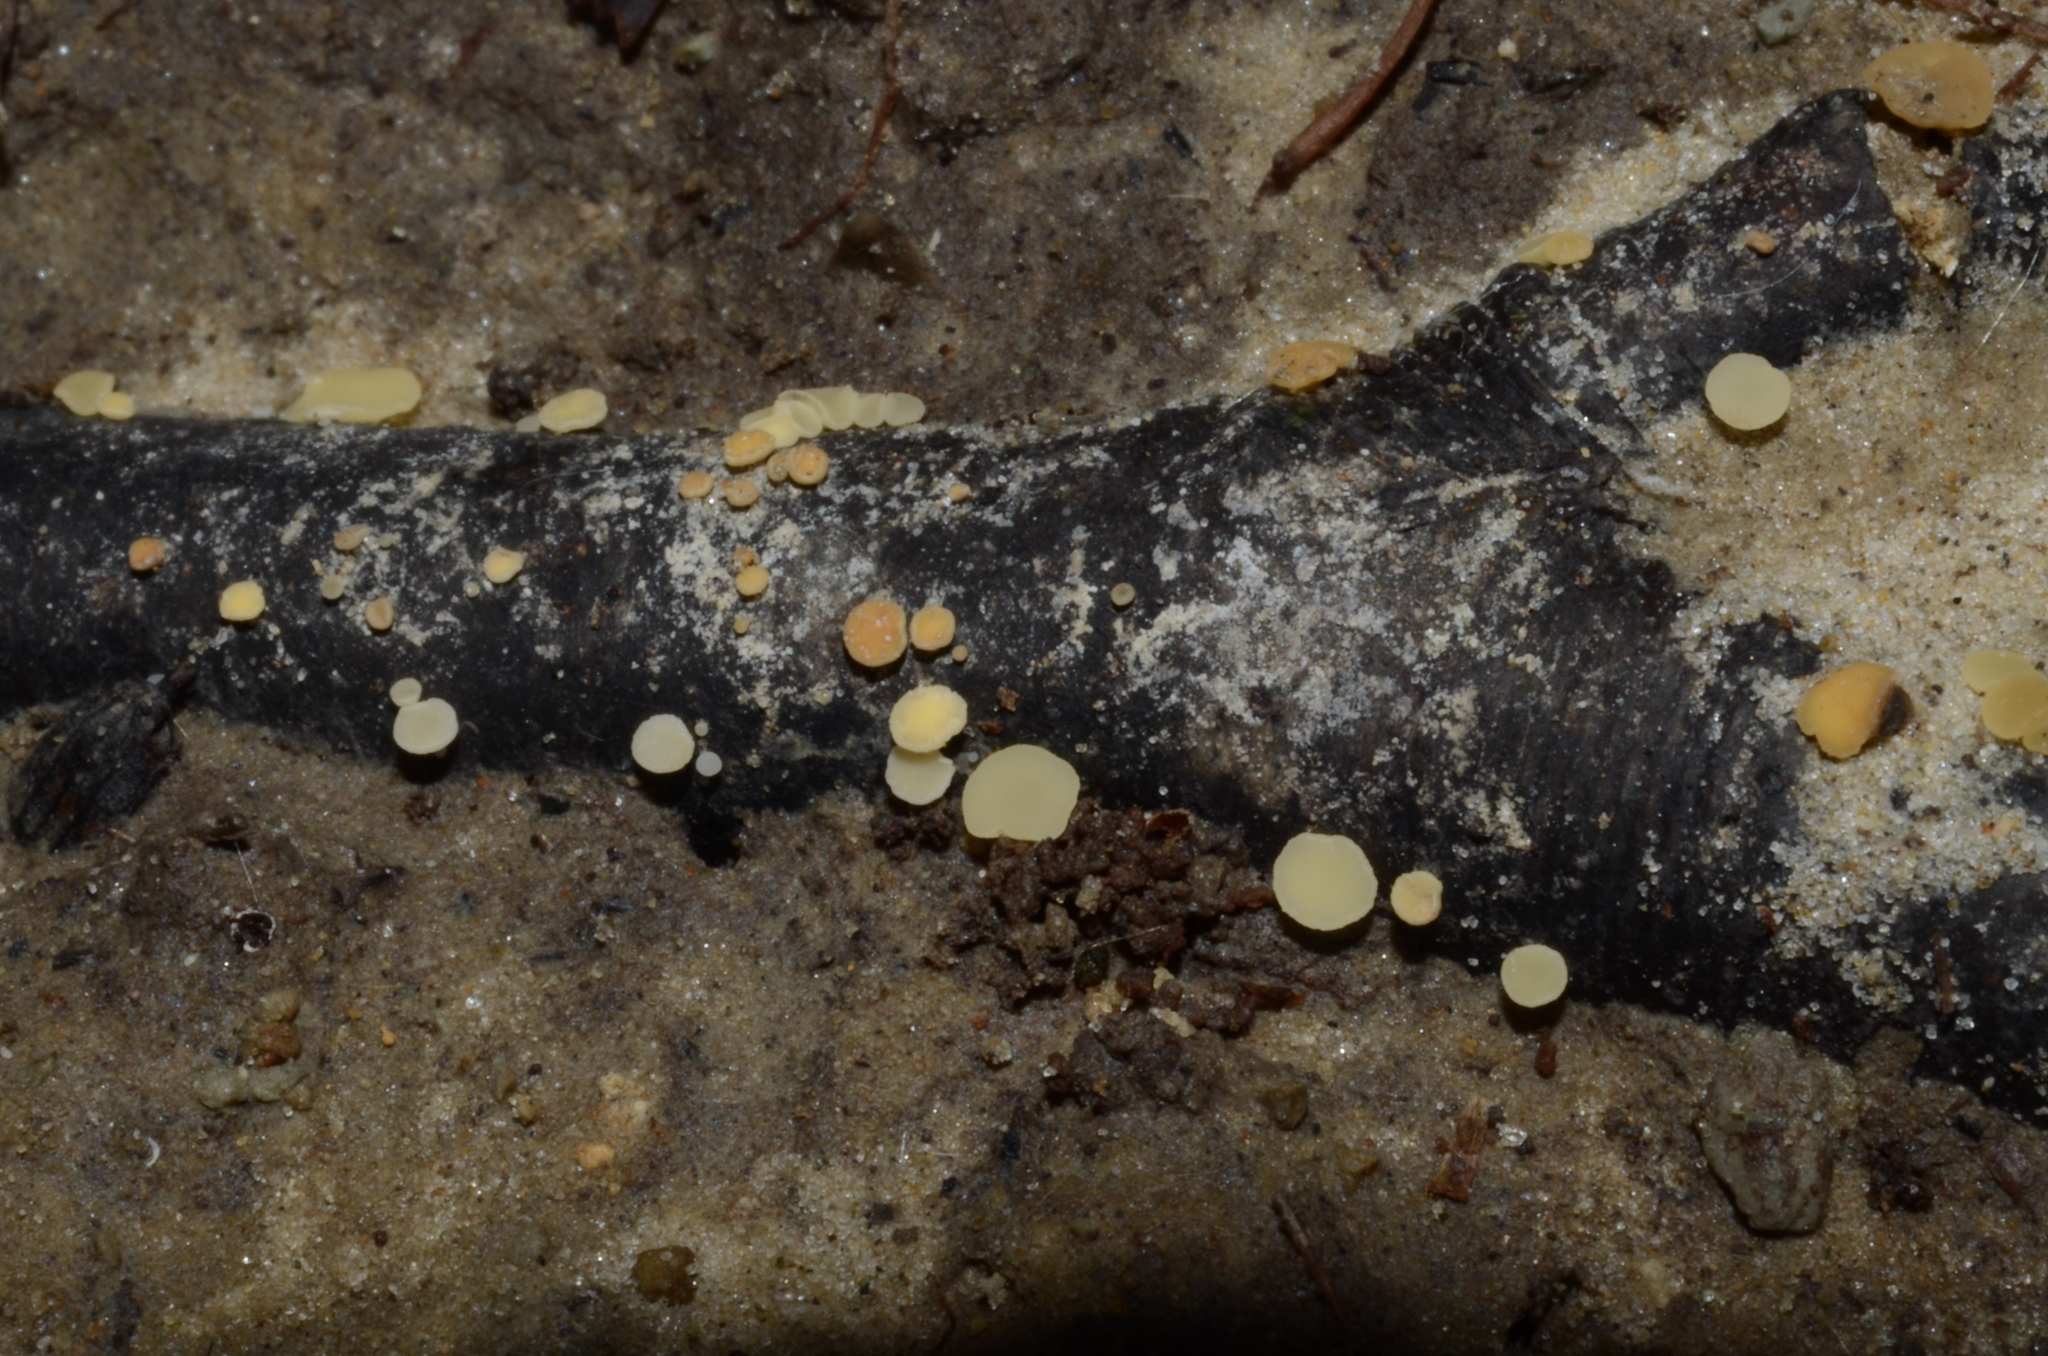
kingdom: Fungi
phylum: Ascomycota
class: Leotiomycetes
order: Helotiales
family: Helotiaceae
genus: Hymenoscyphus
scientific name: Hymenoscyphus imberbis
